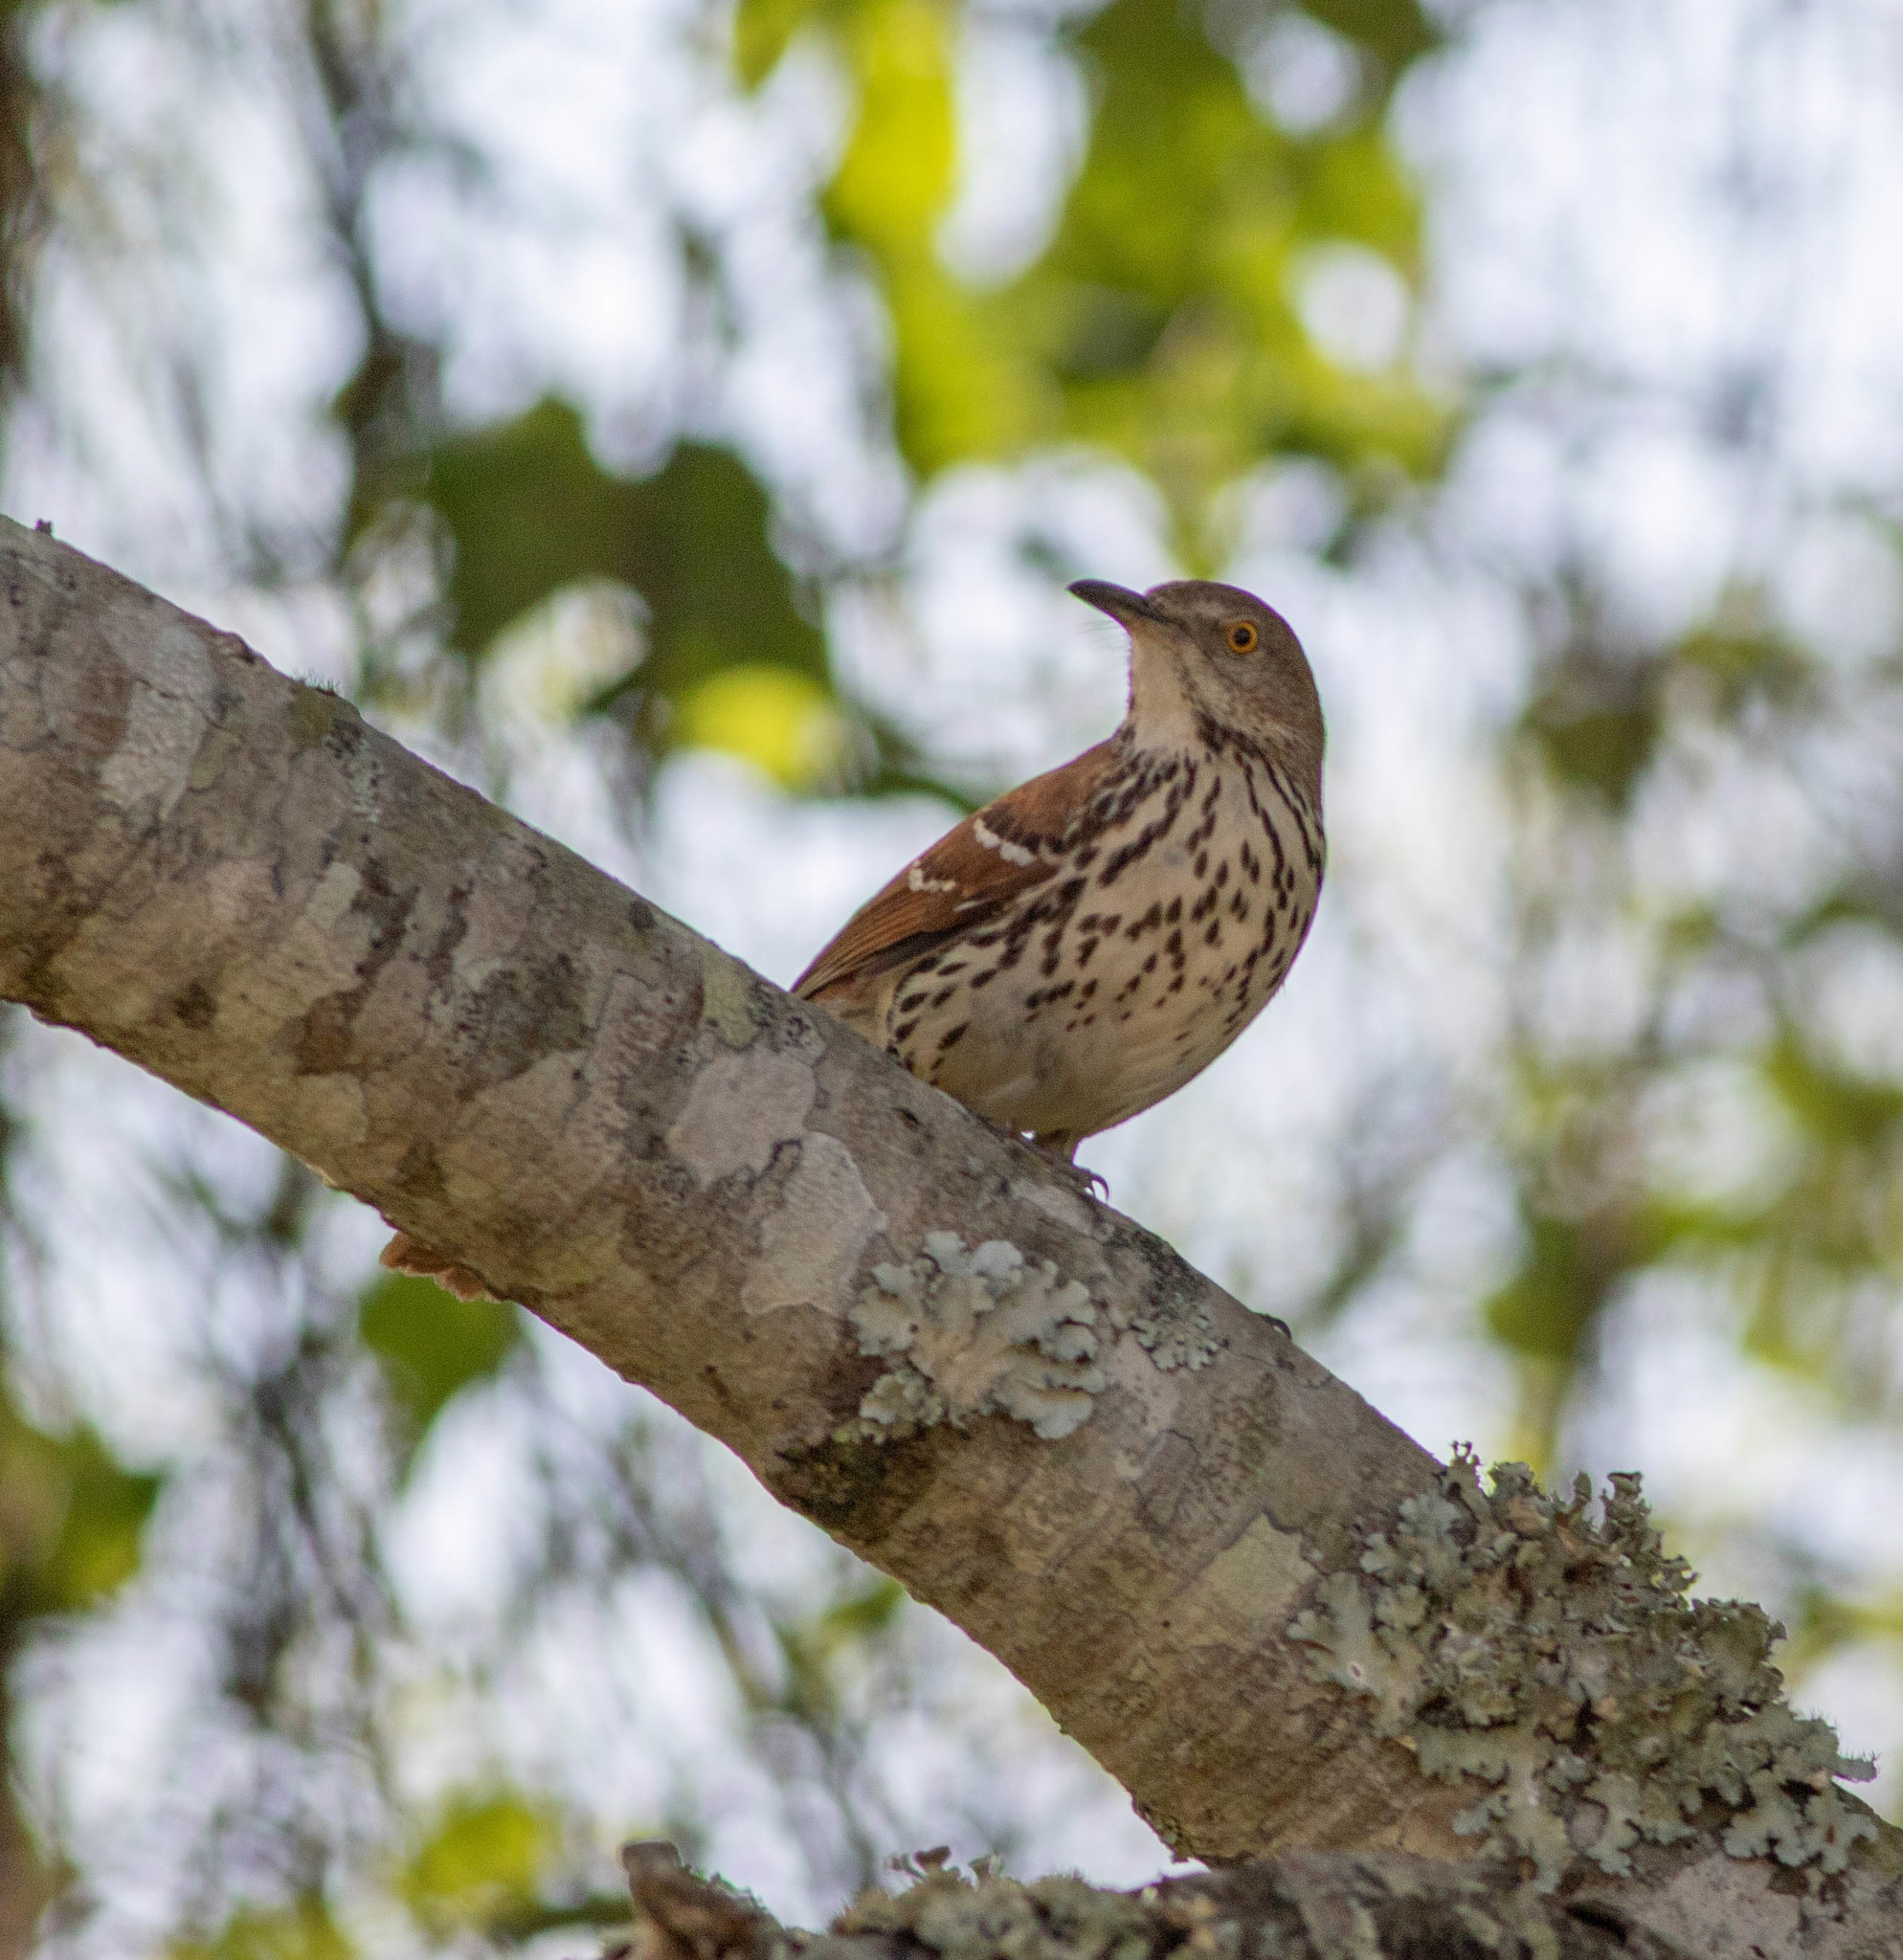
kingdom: Animalia
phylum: Chordata
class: Aves
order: Passeriformes
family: Mimidae
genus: Toxostoma
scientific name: Toxostoma rufum
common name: Brown thrasher
